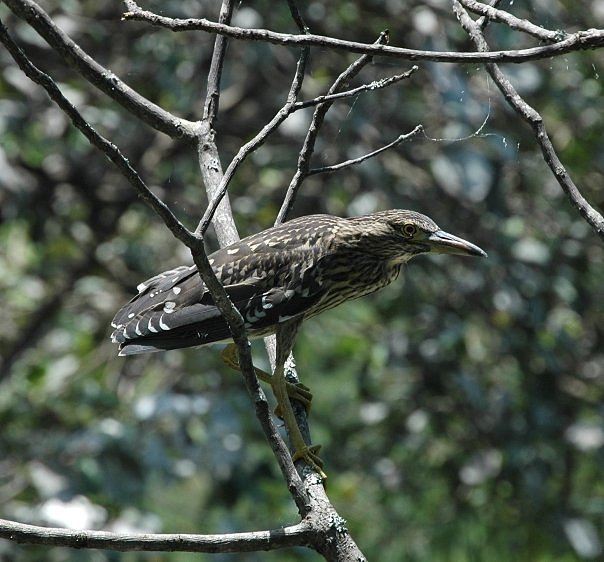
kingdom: Animalia
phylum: Chordata
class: Aves
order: Pelecaniformes
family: Ardeidae
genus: Nycticorax
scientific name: Nycticorax nycticorax
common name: Black-crowned night heron
